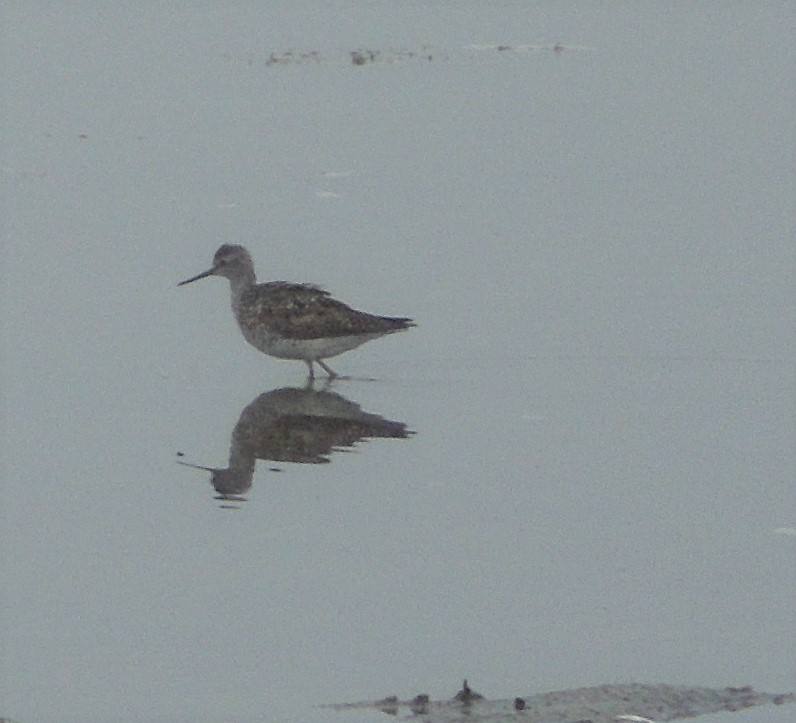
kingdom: Animalia
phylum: Chordata
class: Aves
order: Charadriiformes
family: Scolopacidae
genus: Tringa
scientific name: Tringa flavipes
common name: Lesser yellowlegs
